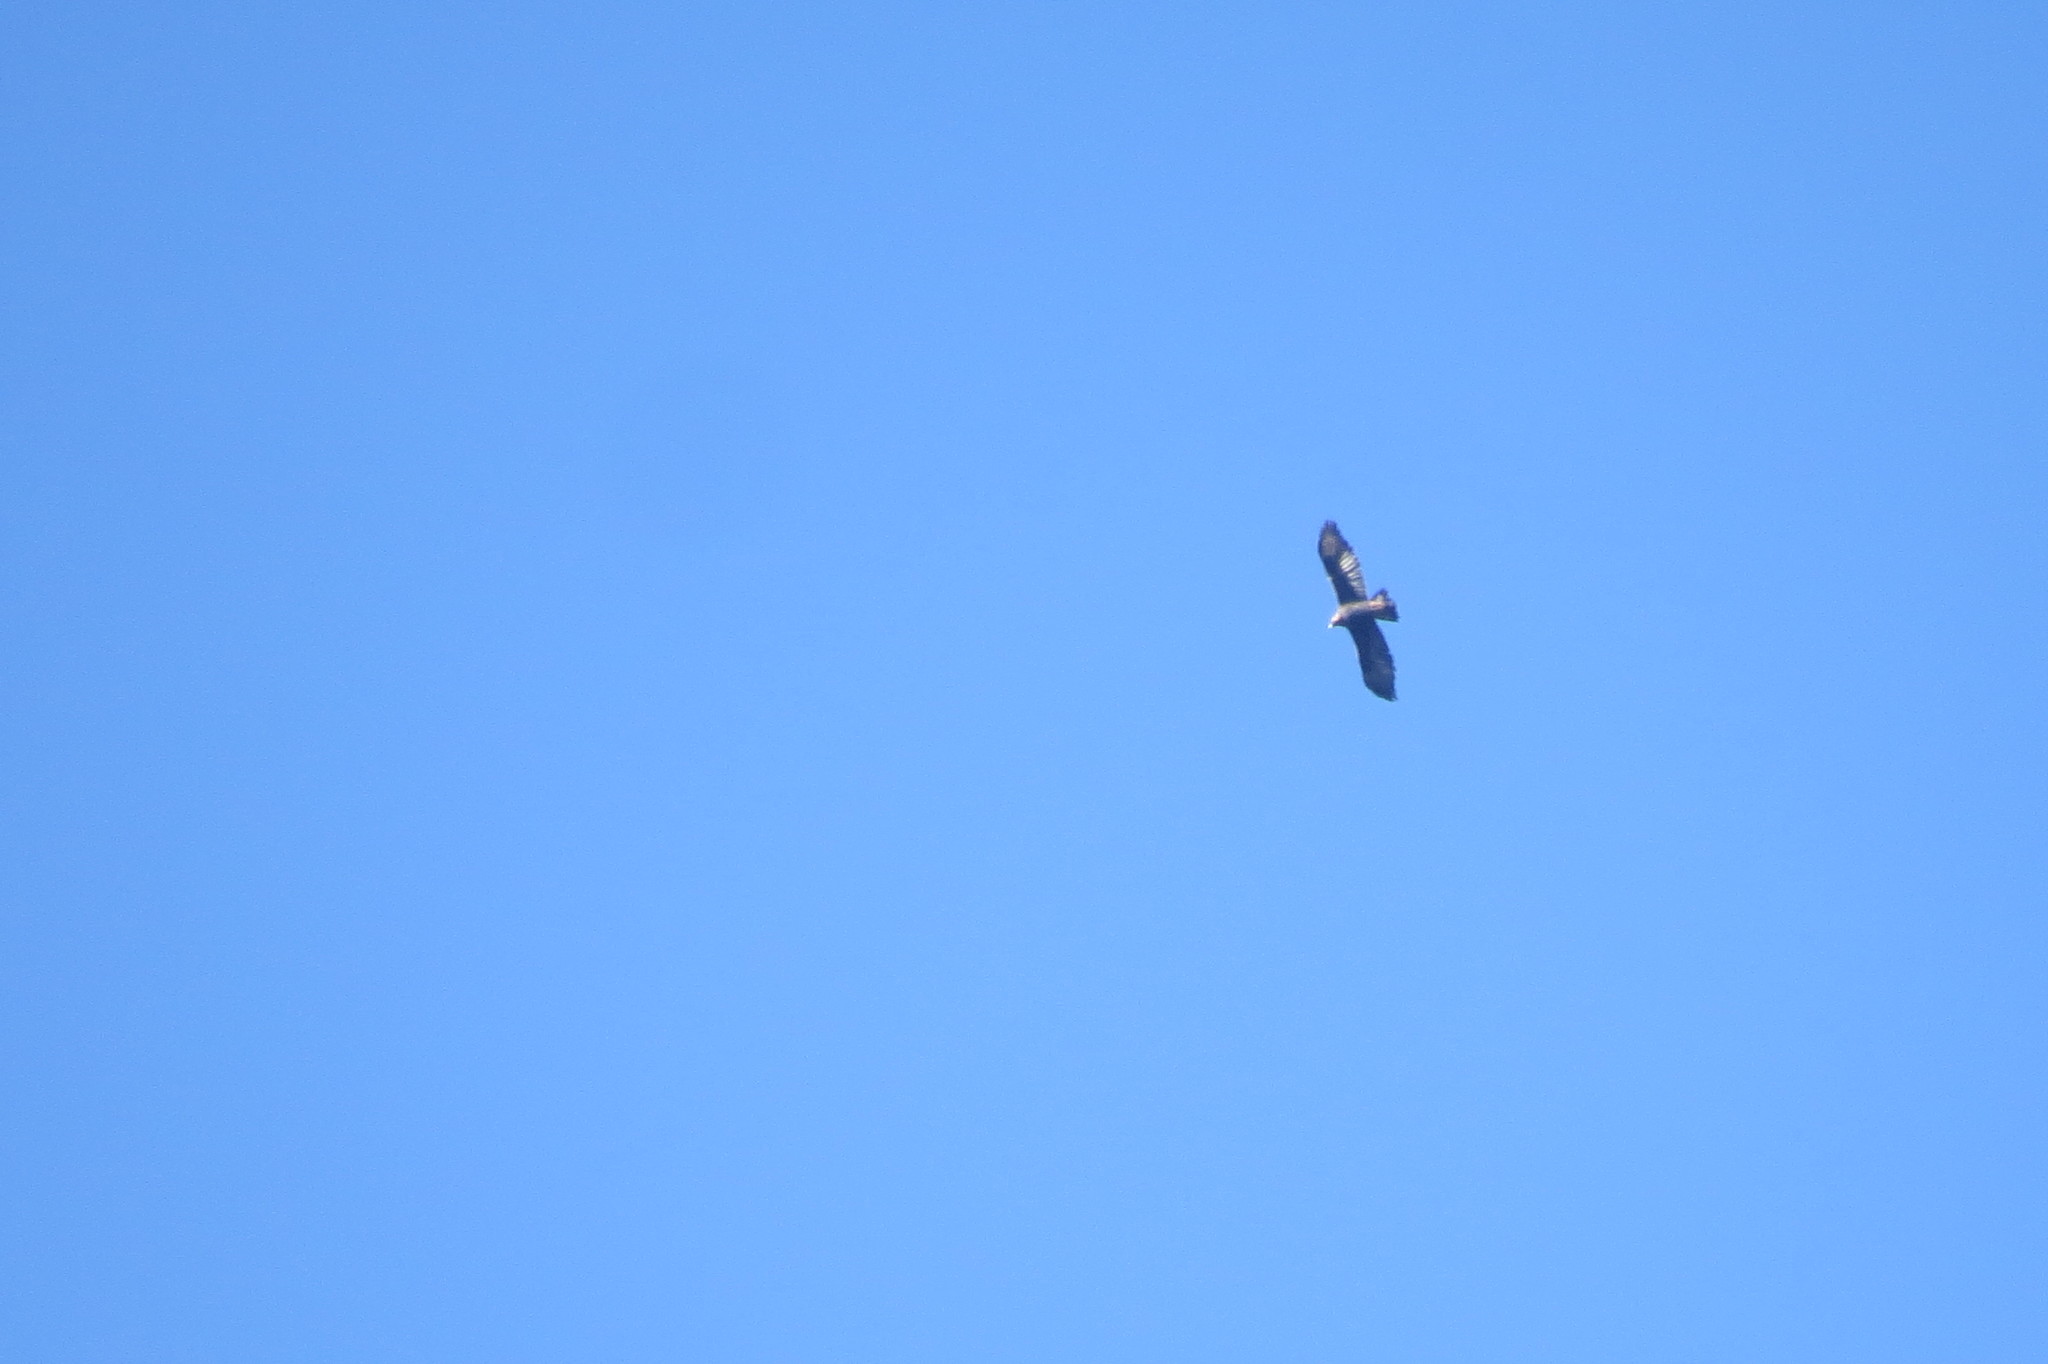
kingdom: Animalia
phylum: Chordata
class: Aves
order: Accipitriformes
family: Accipitridae
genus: Aquila
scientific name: Aquila chrysaetos
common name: Golden eagle
